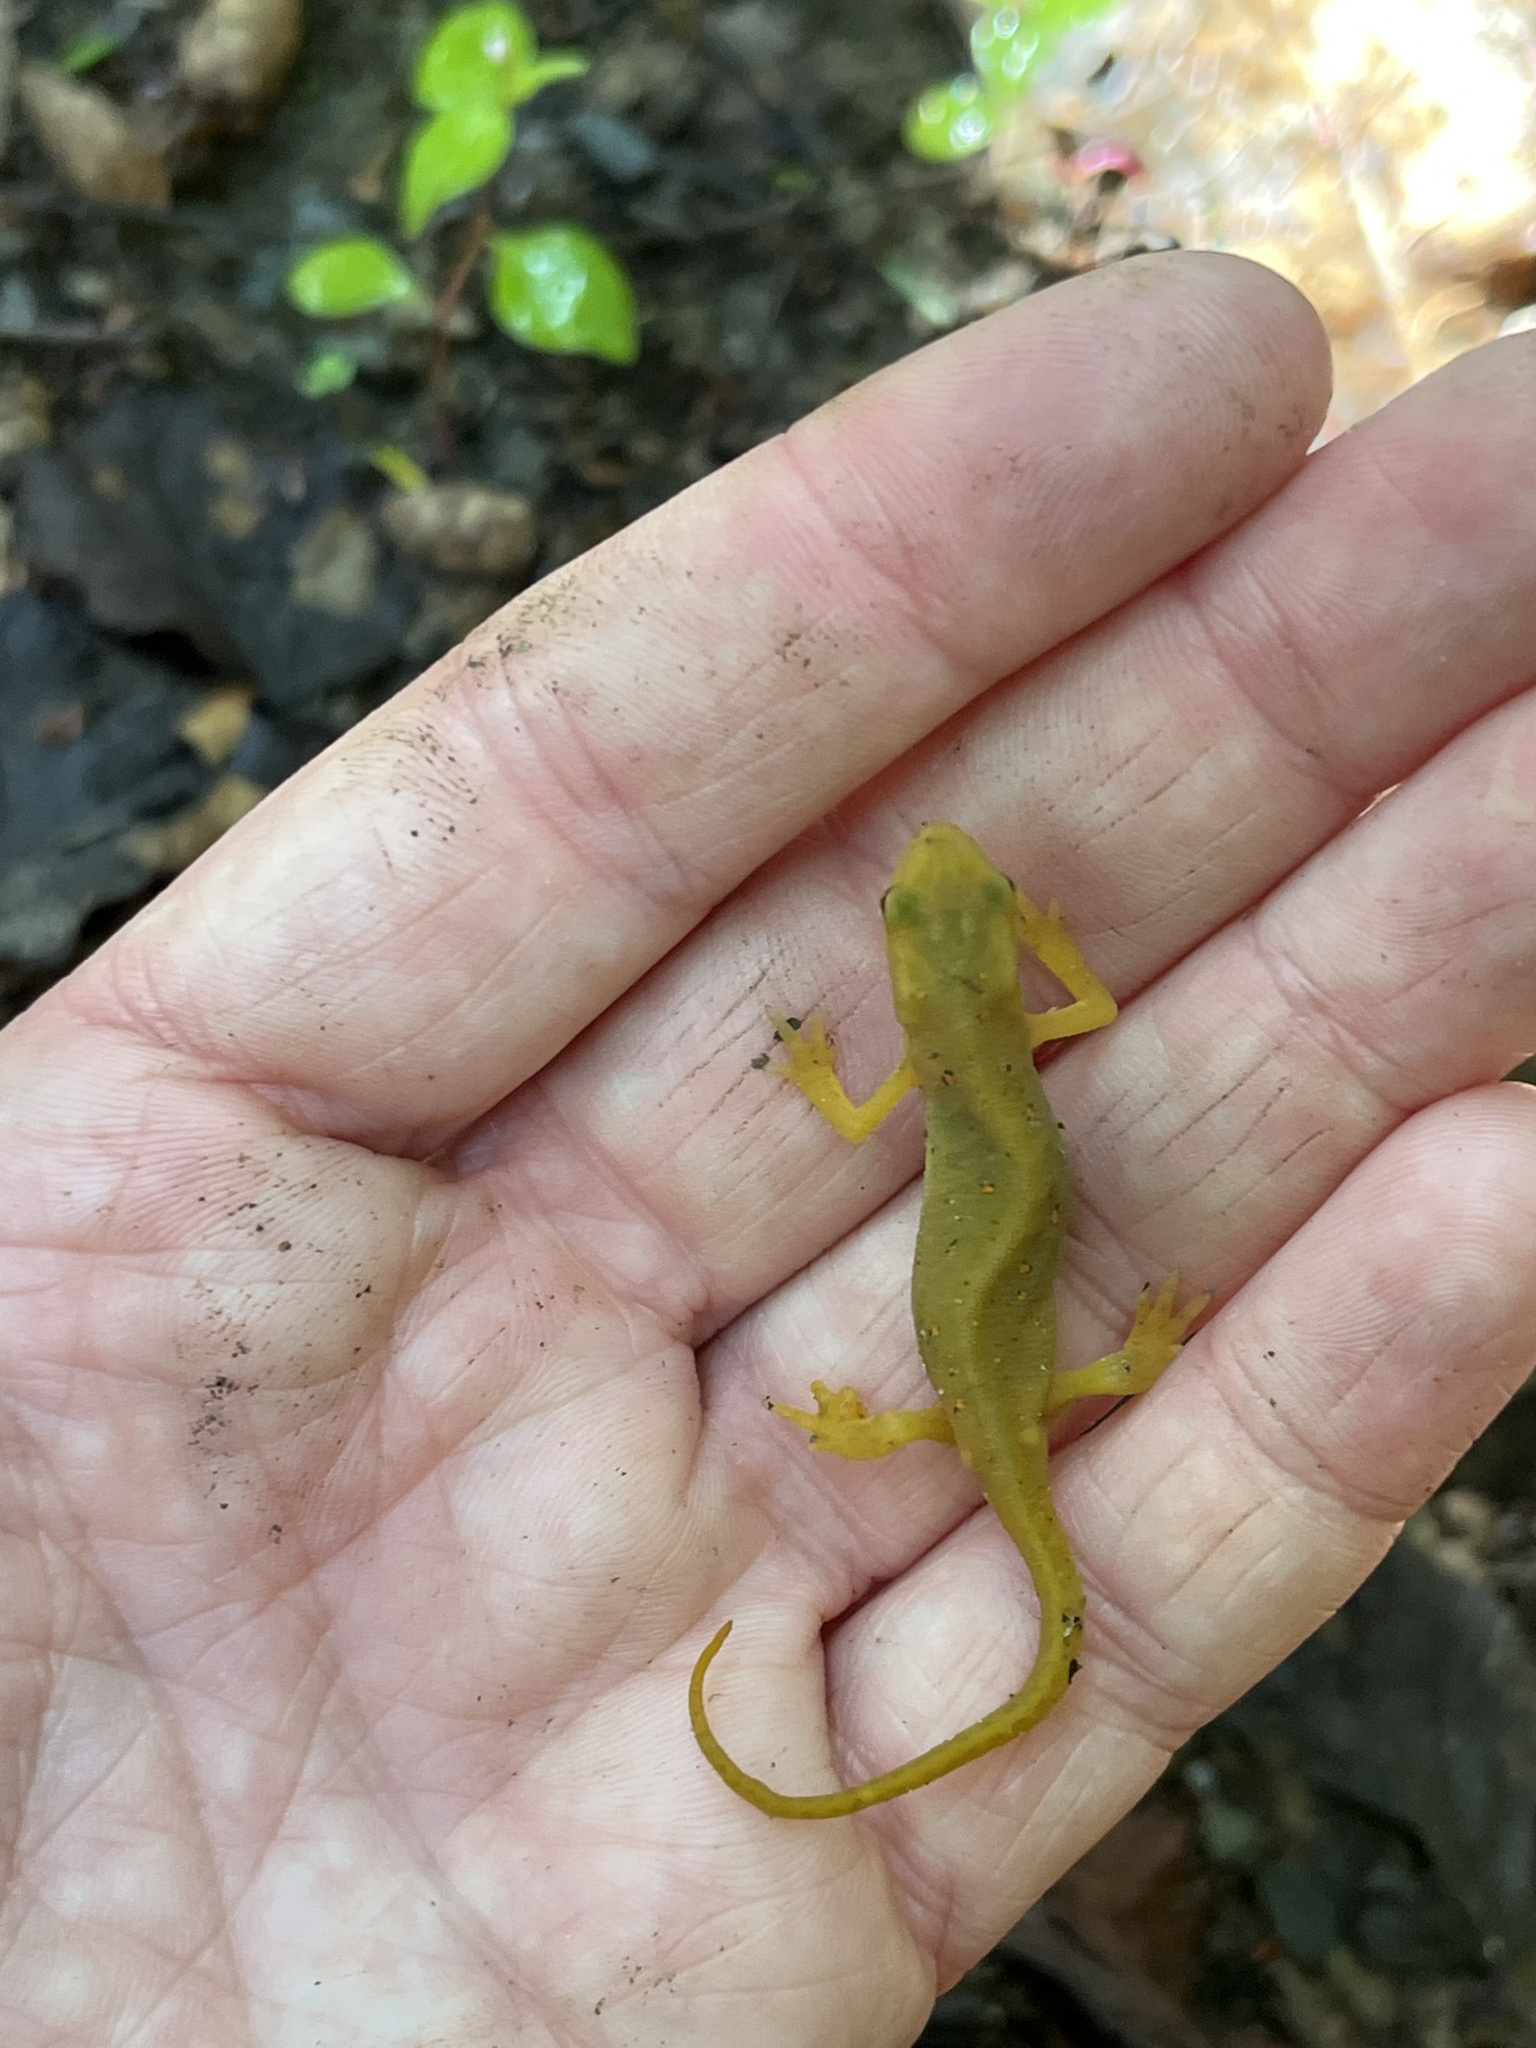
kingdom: Animalia
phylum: Chordata
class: Amphibia
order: Caudata
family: Salamandridae
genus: Notophthalmus
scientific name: Notophthalmus viridescens
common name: Eastern newt
